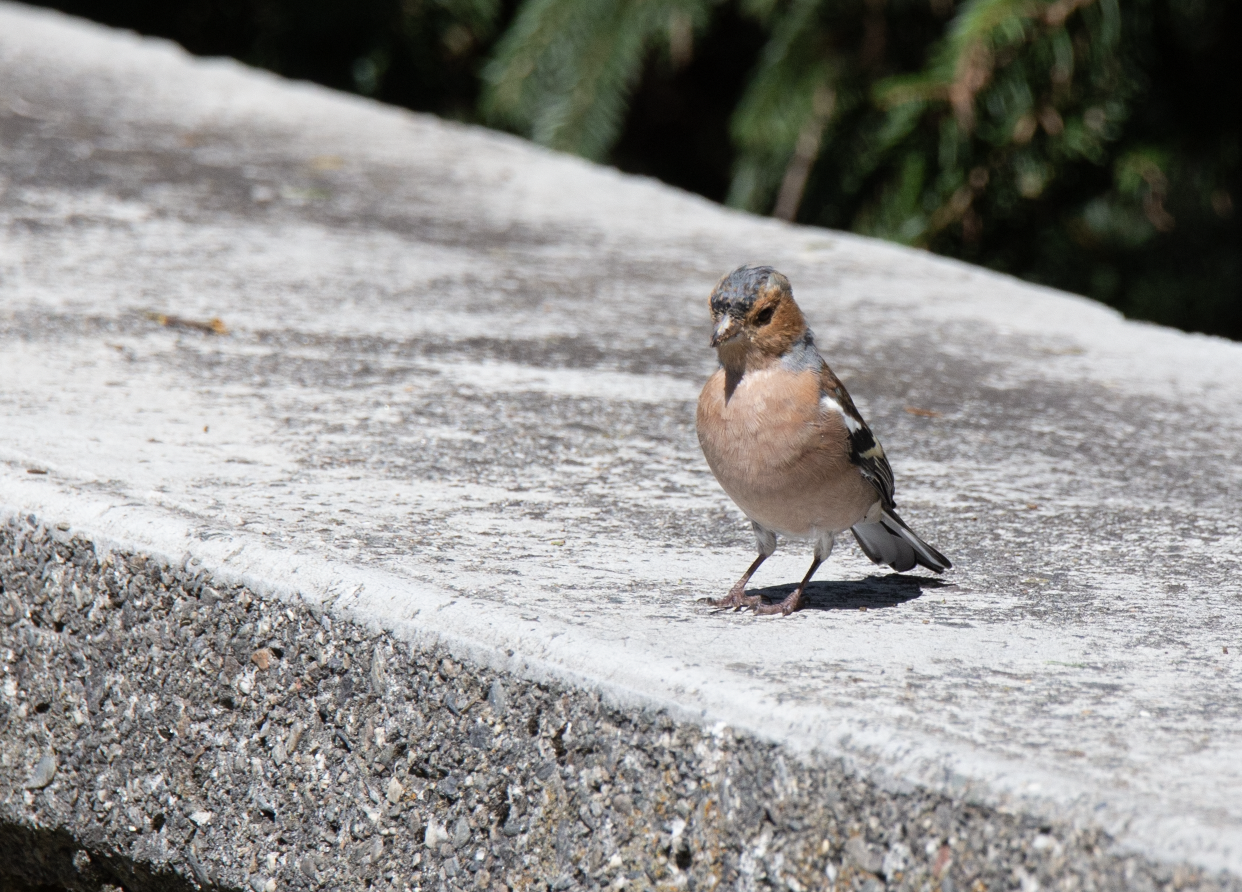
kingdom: Animalia
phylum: Chordata
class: Aves
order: Passeriformes
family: Fringillidae
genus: Fringilla
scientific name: Fringilla coelebs
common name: Common chaffinch
